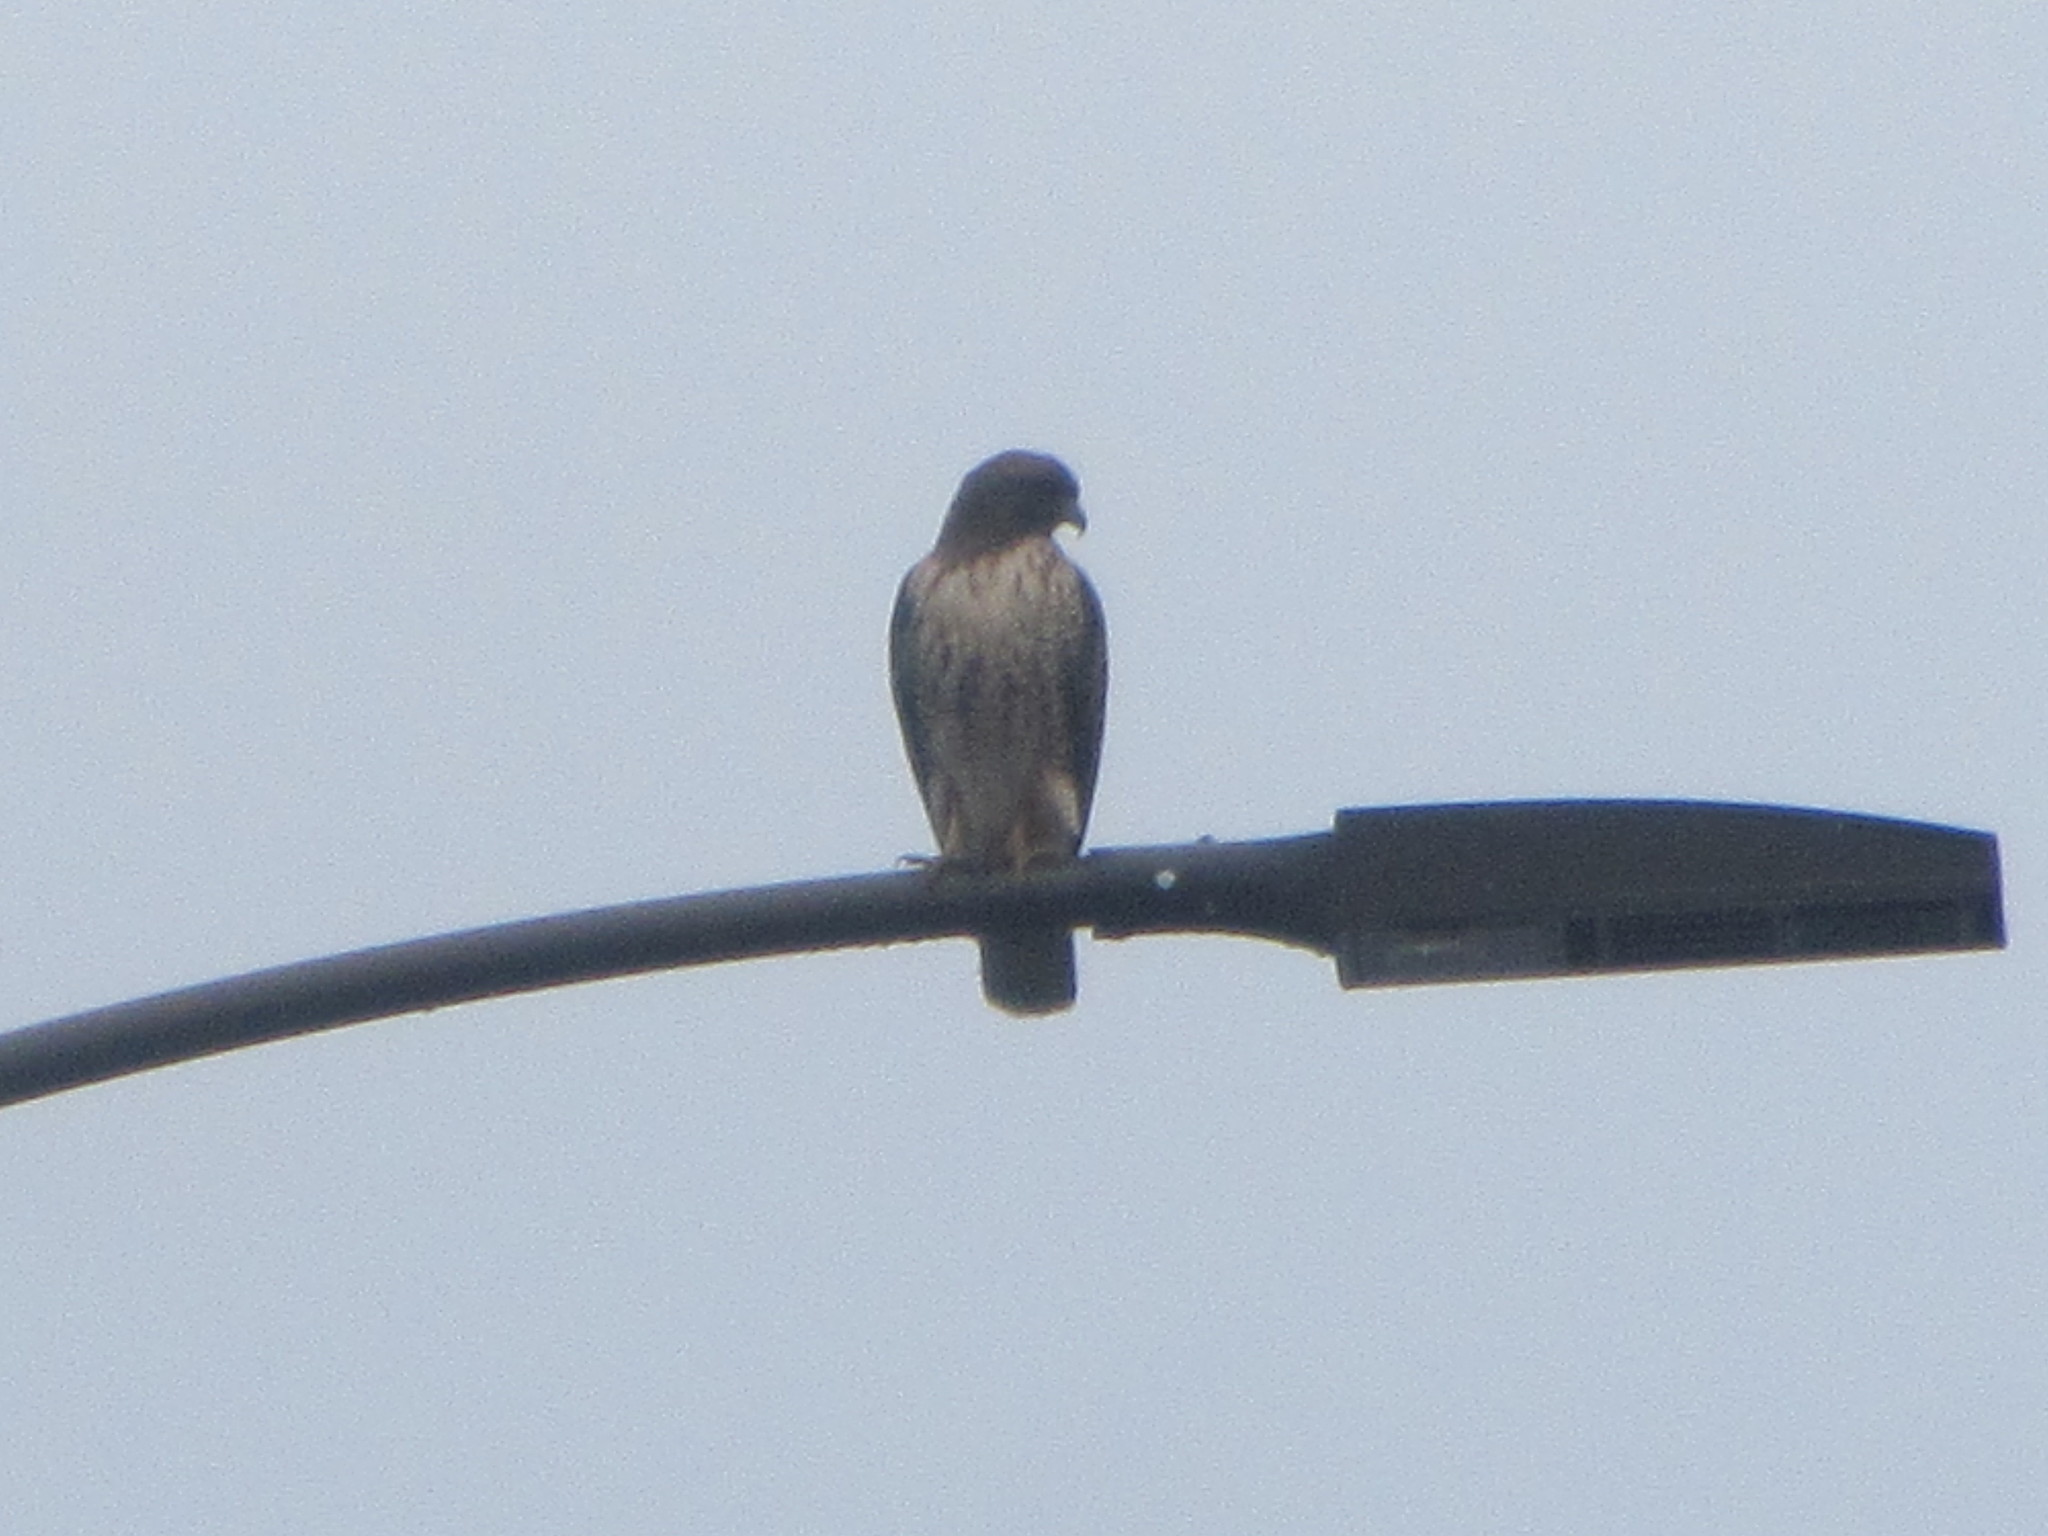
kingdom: Animalia
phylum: Chordata
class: Aves
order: Accipitriformes
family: Accipitridae
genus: Buteo
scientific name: Buteo jamaicensis
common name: Red-tailed hawk
